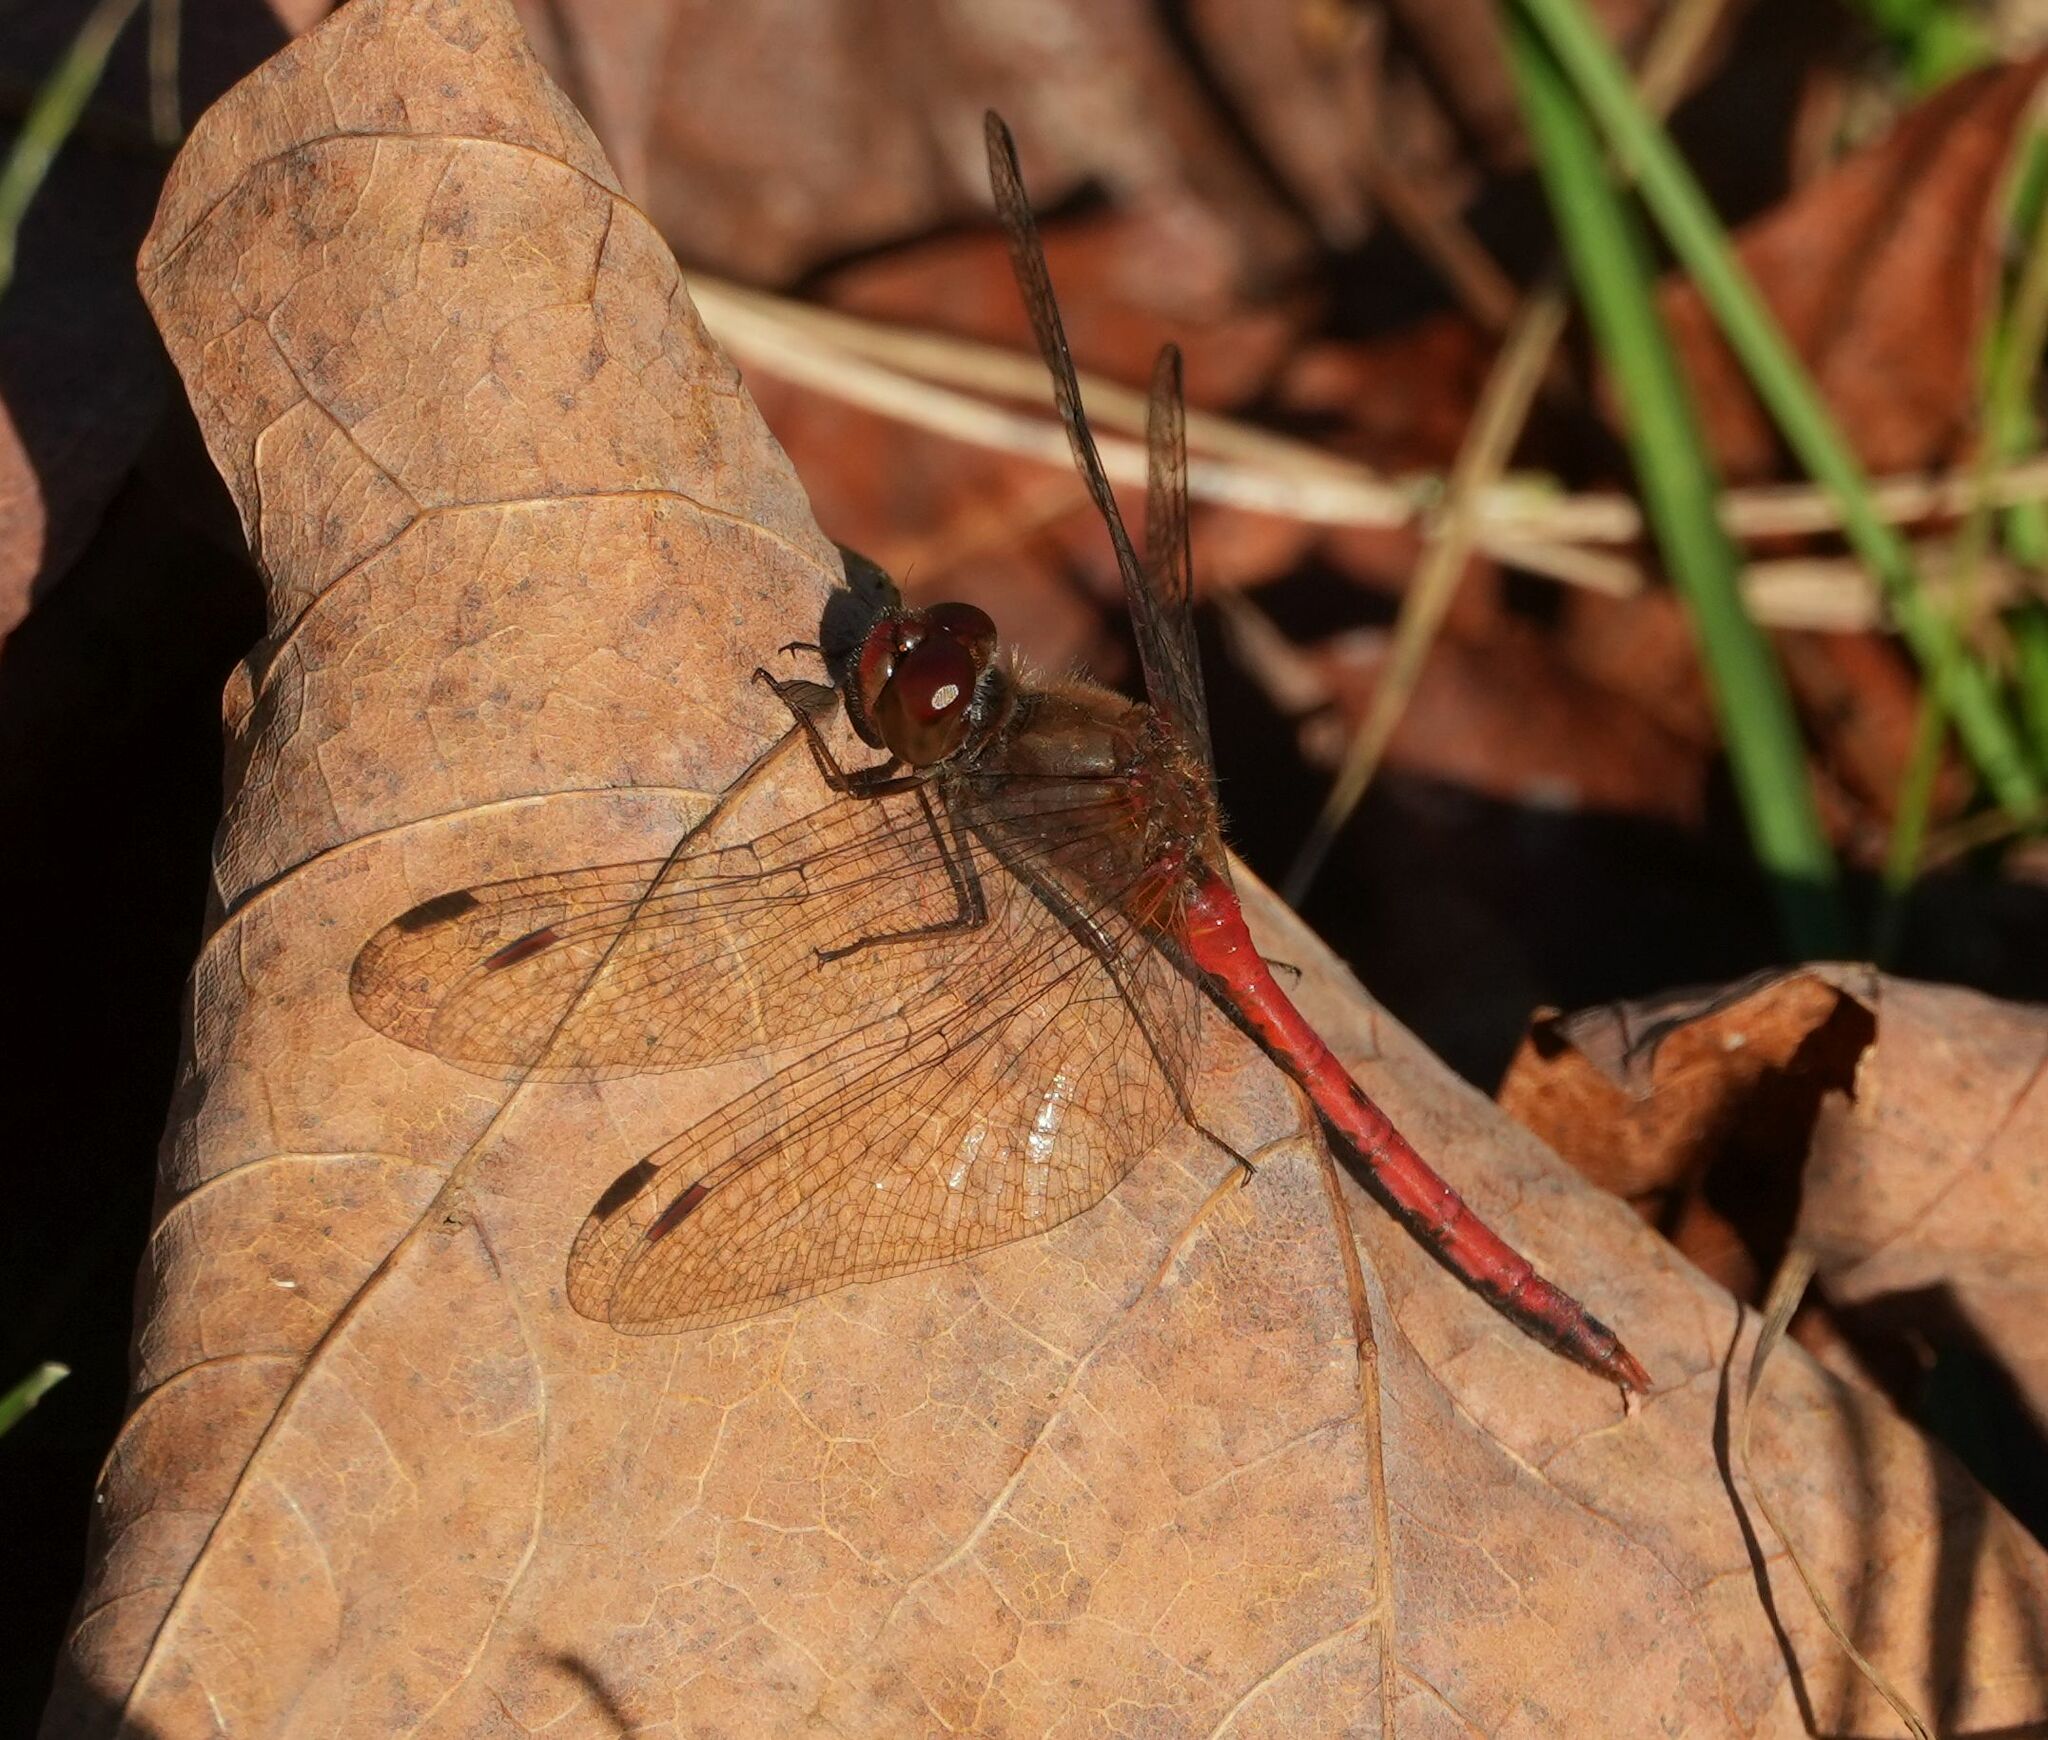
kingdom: Animalia
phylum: Arthropoda
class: Insecta
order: Odonata
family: Libellulidae
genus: Sympetrum
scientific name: Sympetrum vicinum
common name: Autumn meadowhawk
